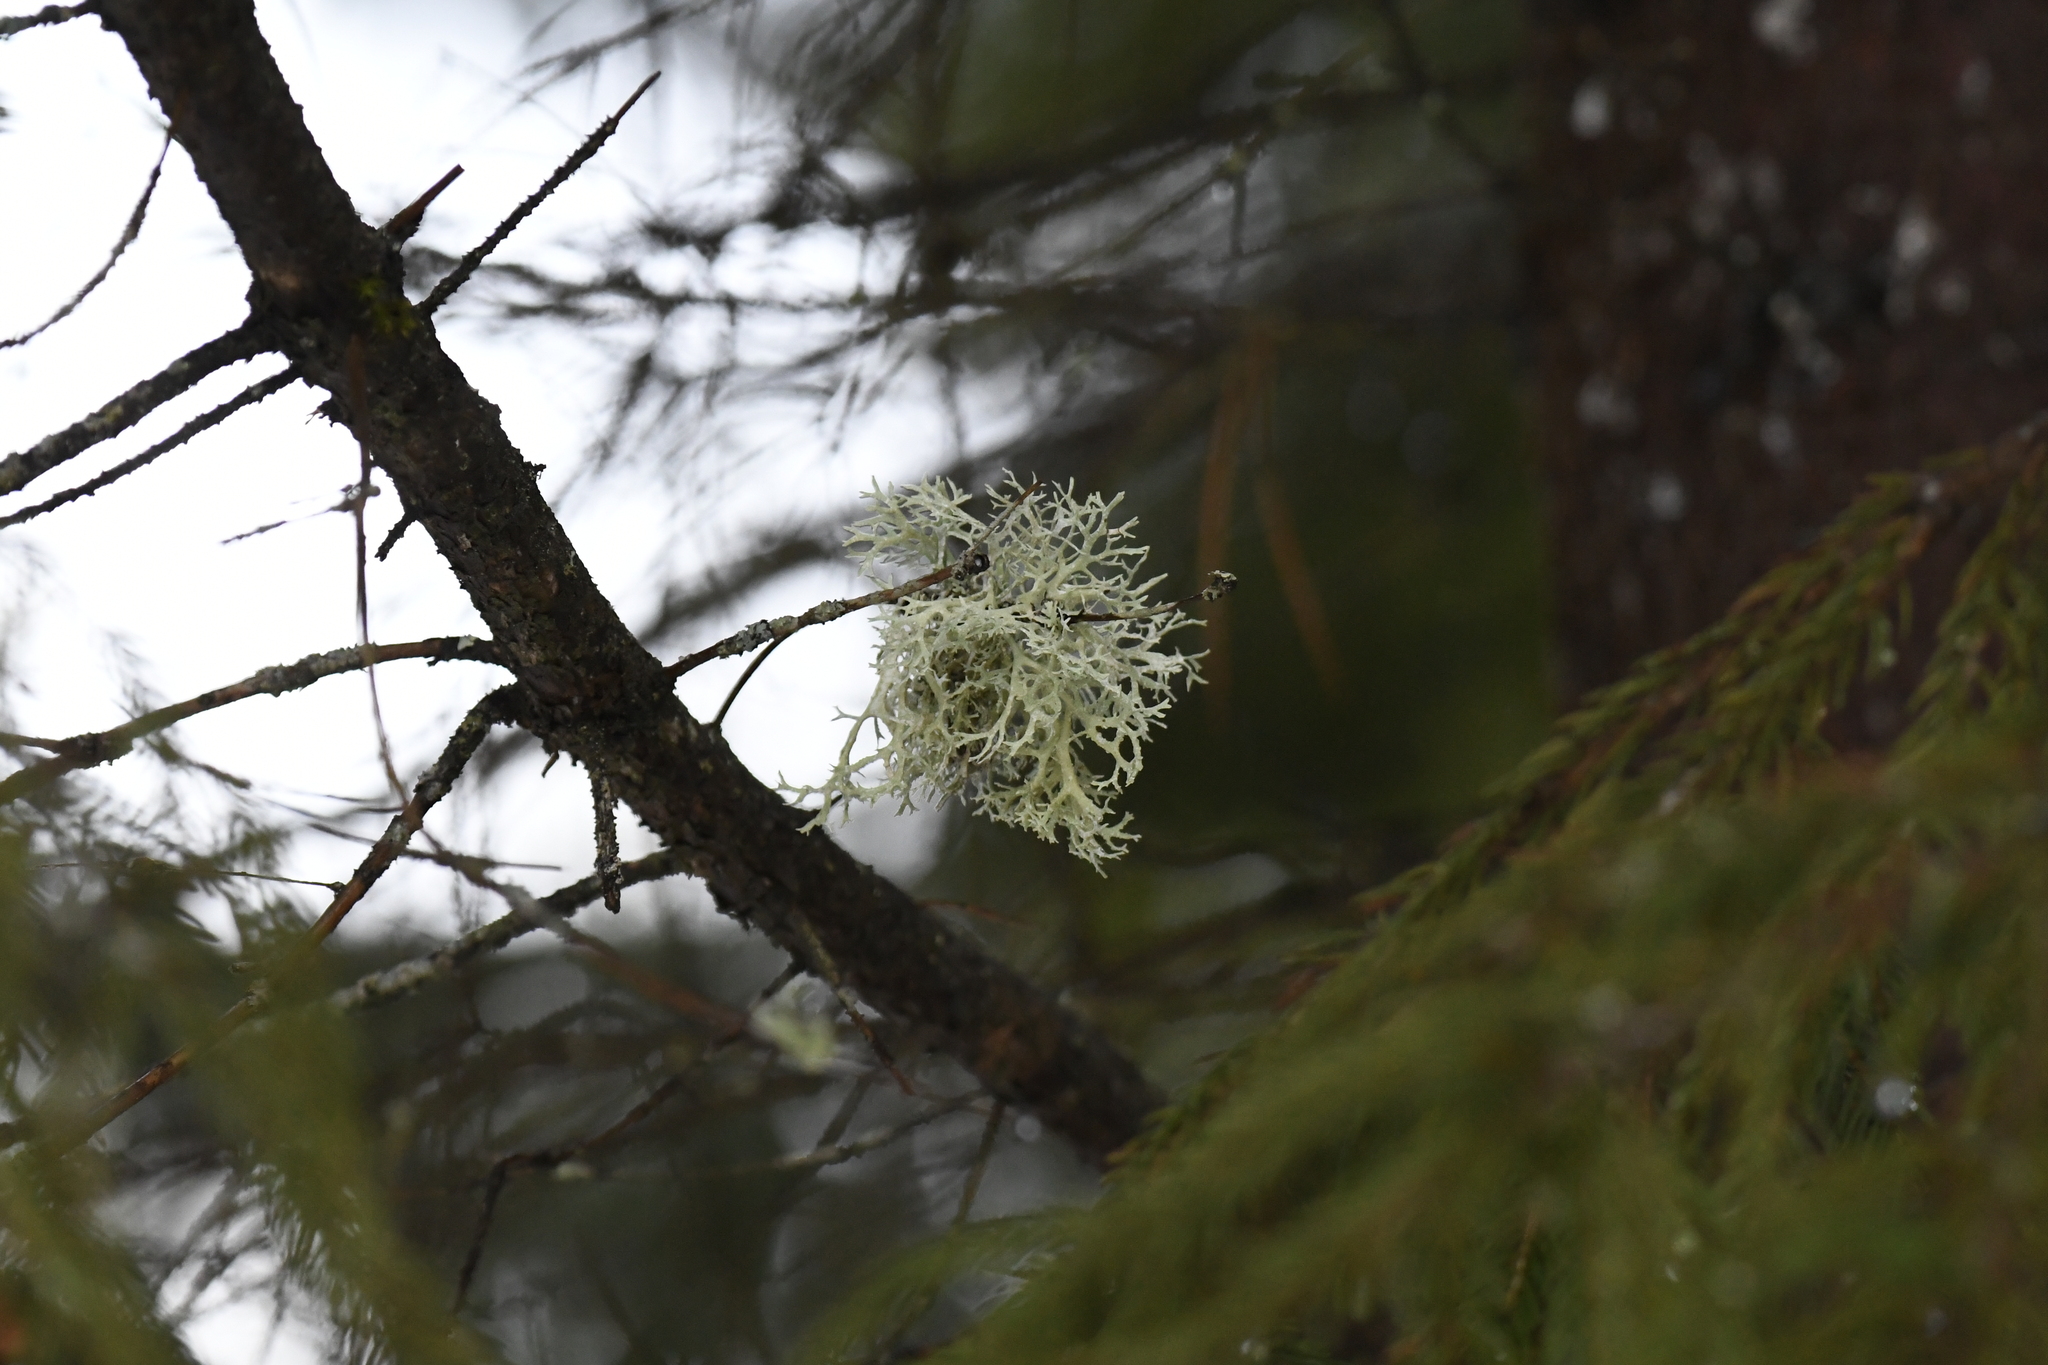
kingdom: Fungi
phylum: Ascomycota
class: Lecanoromycetes
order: Lecanorales
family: Parmeliaceae
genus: Evernia
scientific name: Evernia prunastri
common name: Oak moss
